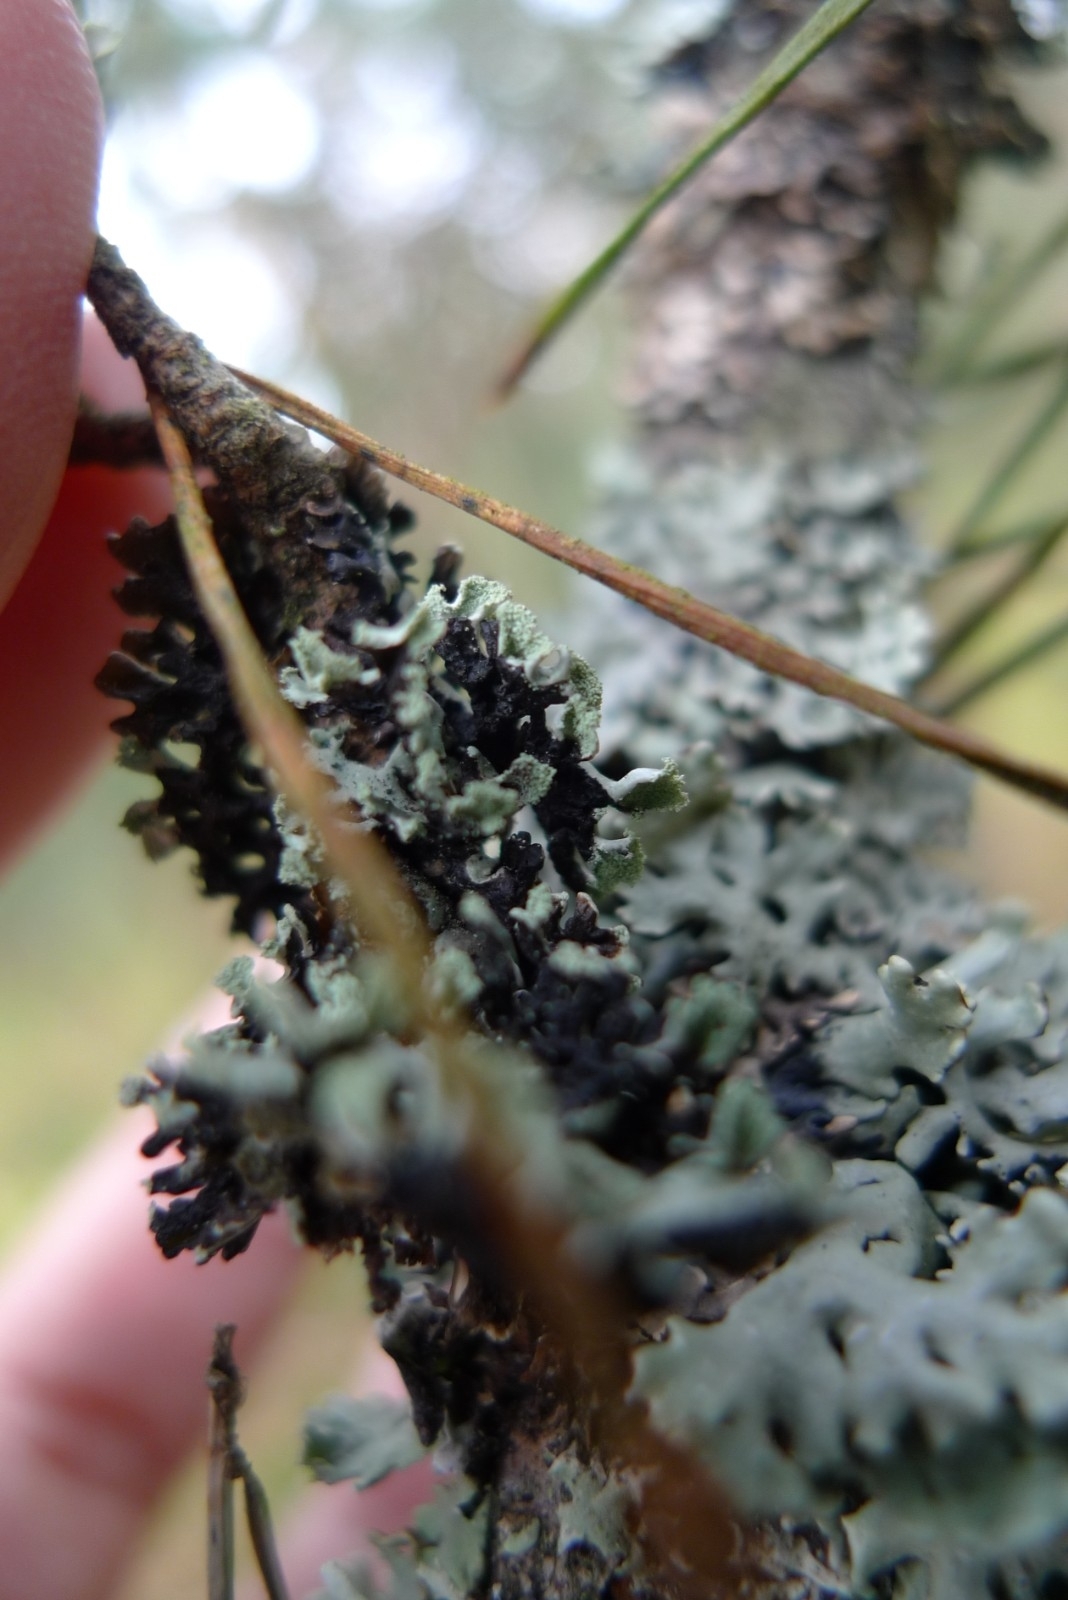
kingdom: Fungi
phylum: Ascomycota
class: Lecanoromycetes
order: Lecanorales
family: Parmeliaceae
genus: Hypogymnia
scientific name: Hypogymnia physodes
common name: Dark crottle
